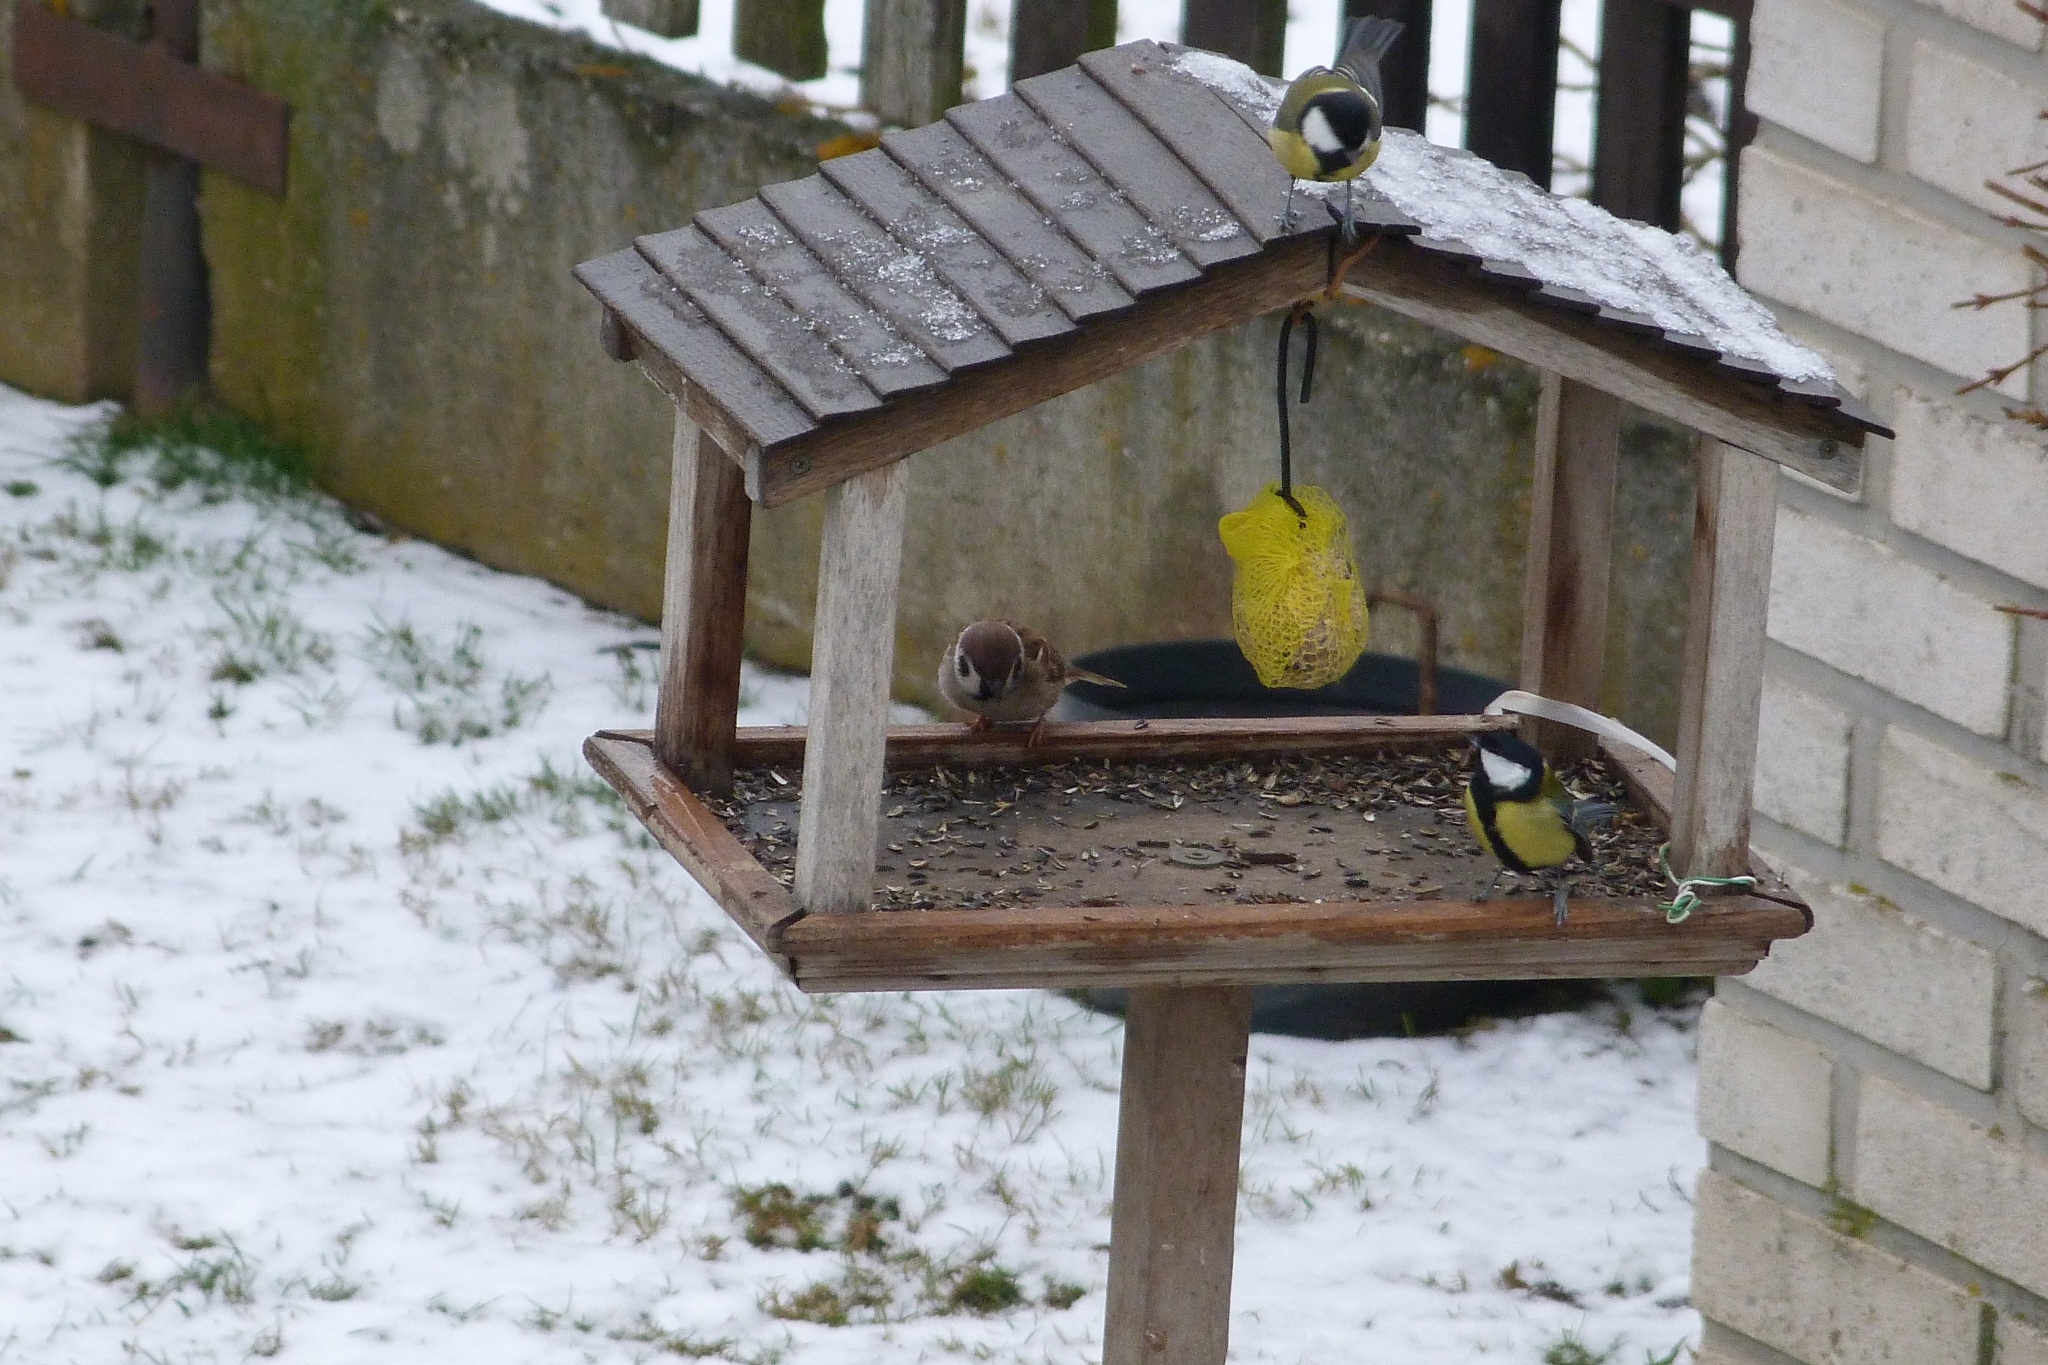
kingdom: Animalia
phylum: Chordata
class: Aves
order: Passeriformes
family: Paridae
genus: Parus
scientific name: Parus major
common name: Great tit
